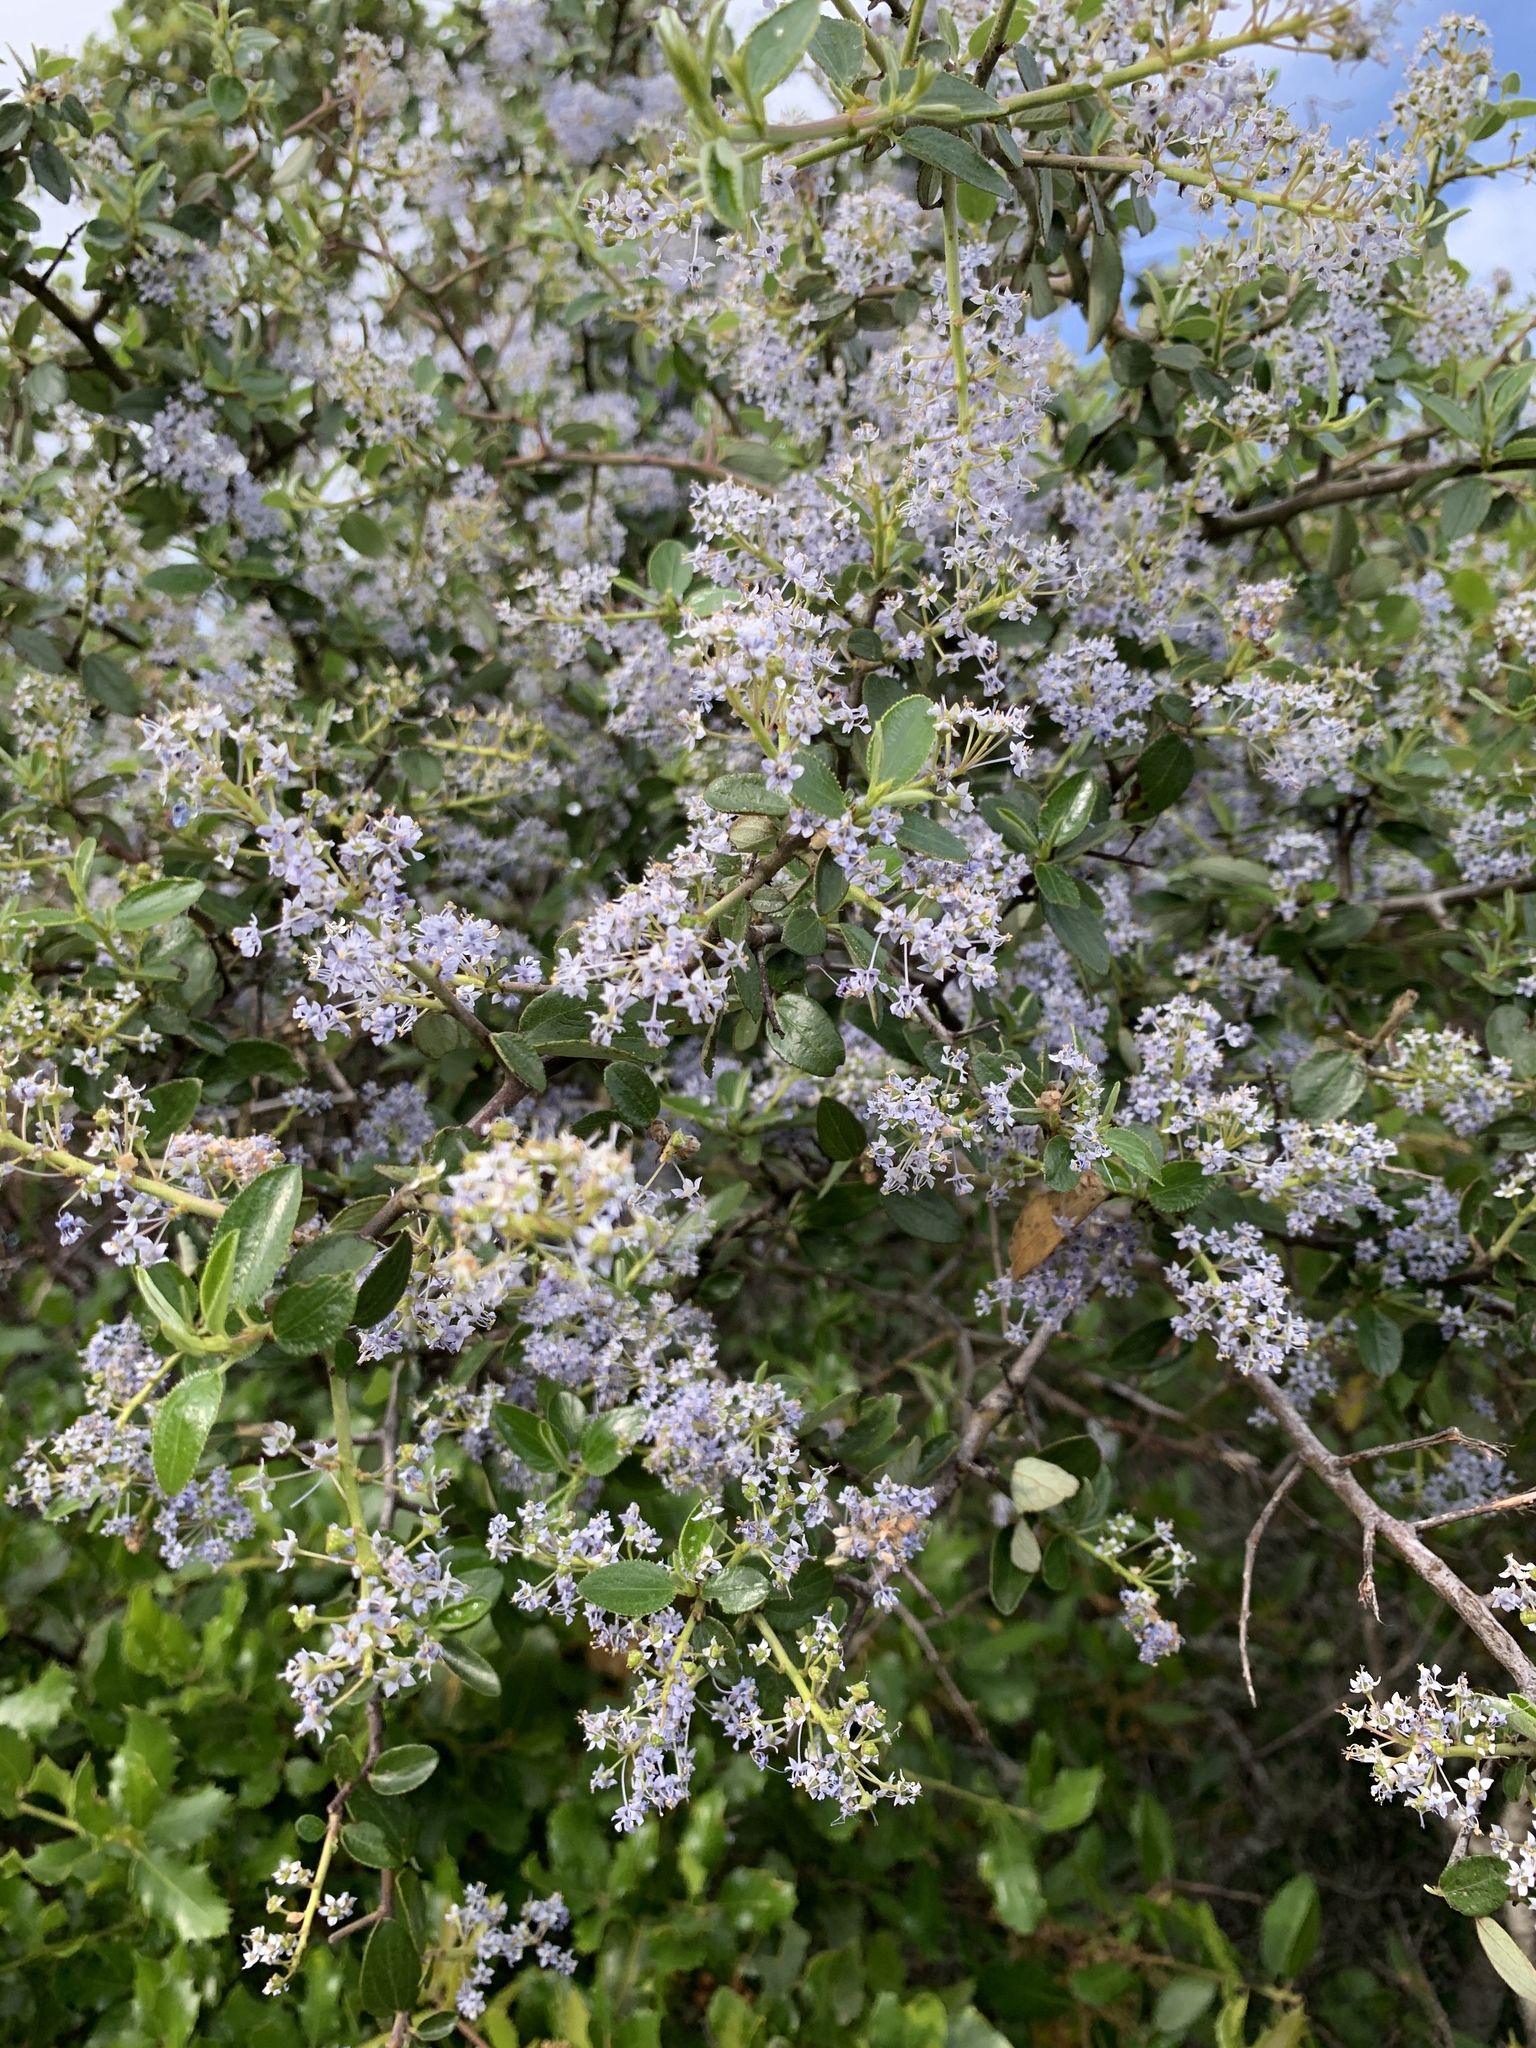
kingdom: Plantae
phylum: Tracheophyta
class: Magnoliopsida
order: Rosales
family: Rhamnaceae
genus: Ceanothus
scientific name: Ceanothus oliganthus
